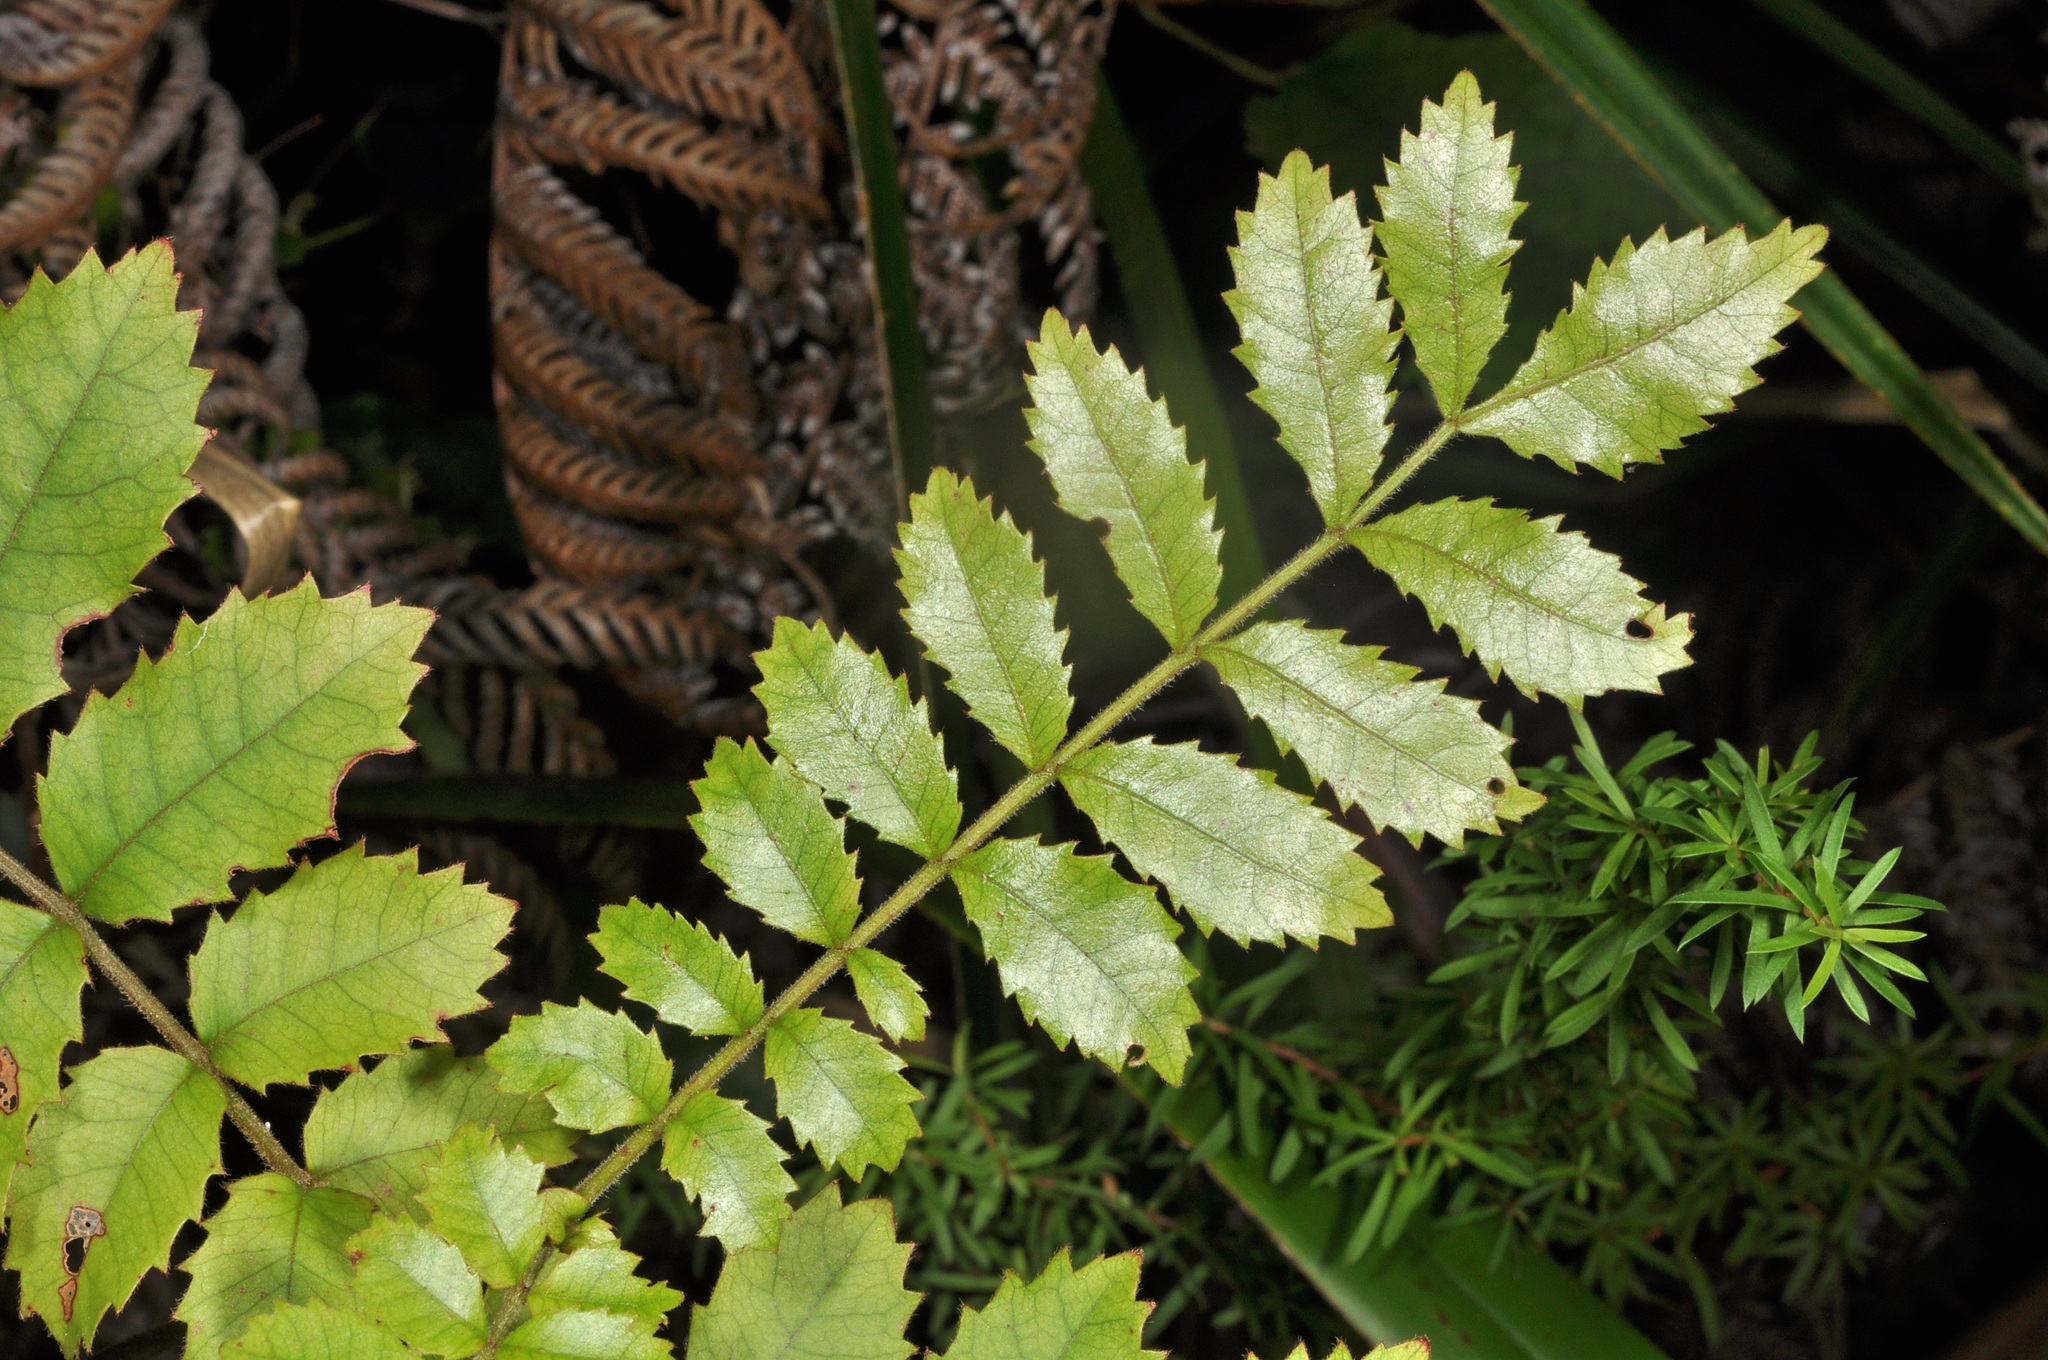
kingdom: Plantae
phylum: Tracheophyta
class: Magnoliopsida
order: Oxalidales
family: Cunoniaceae
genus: Ackama
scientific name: Ackama rosifolia
